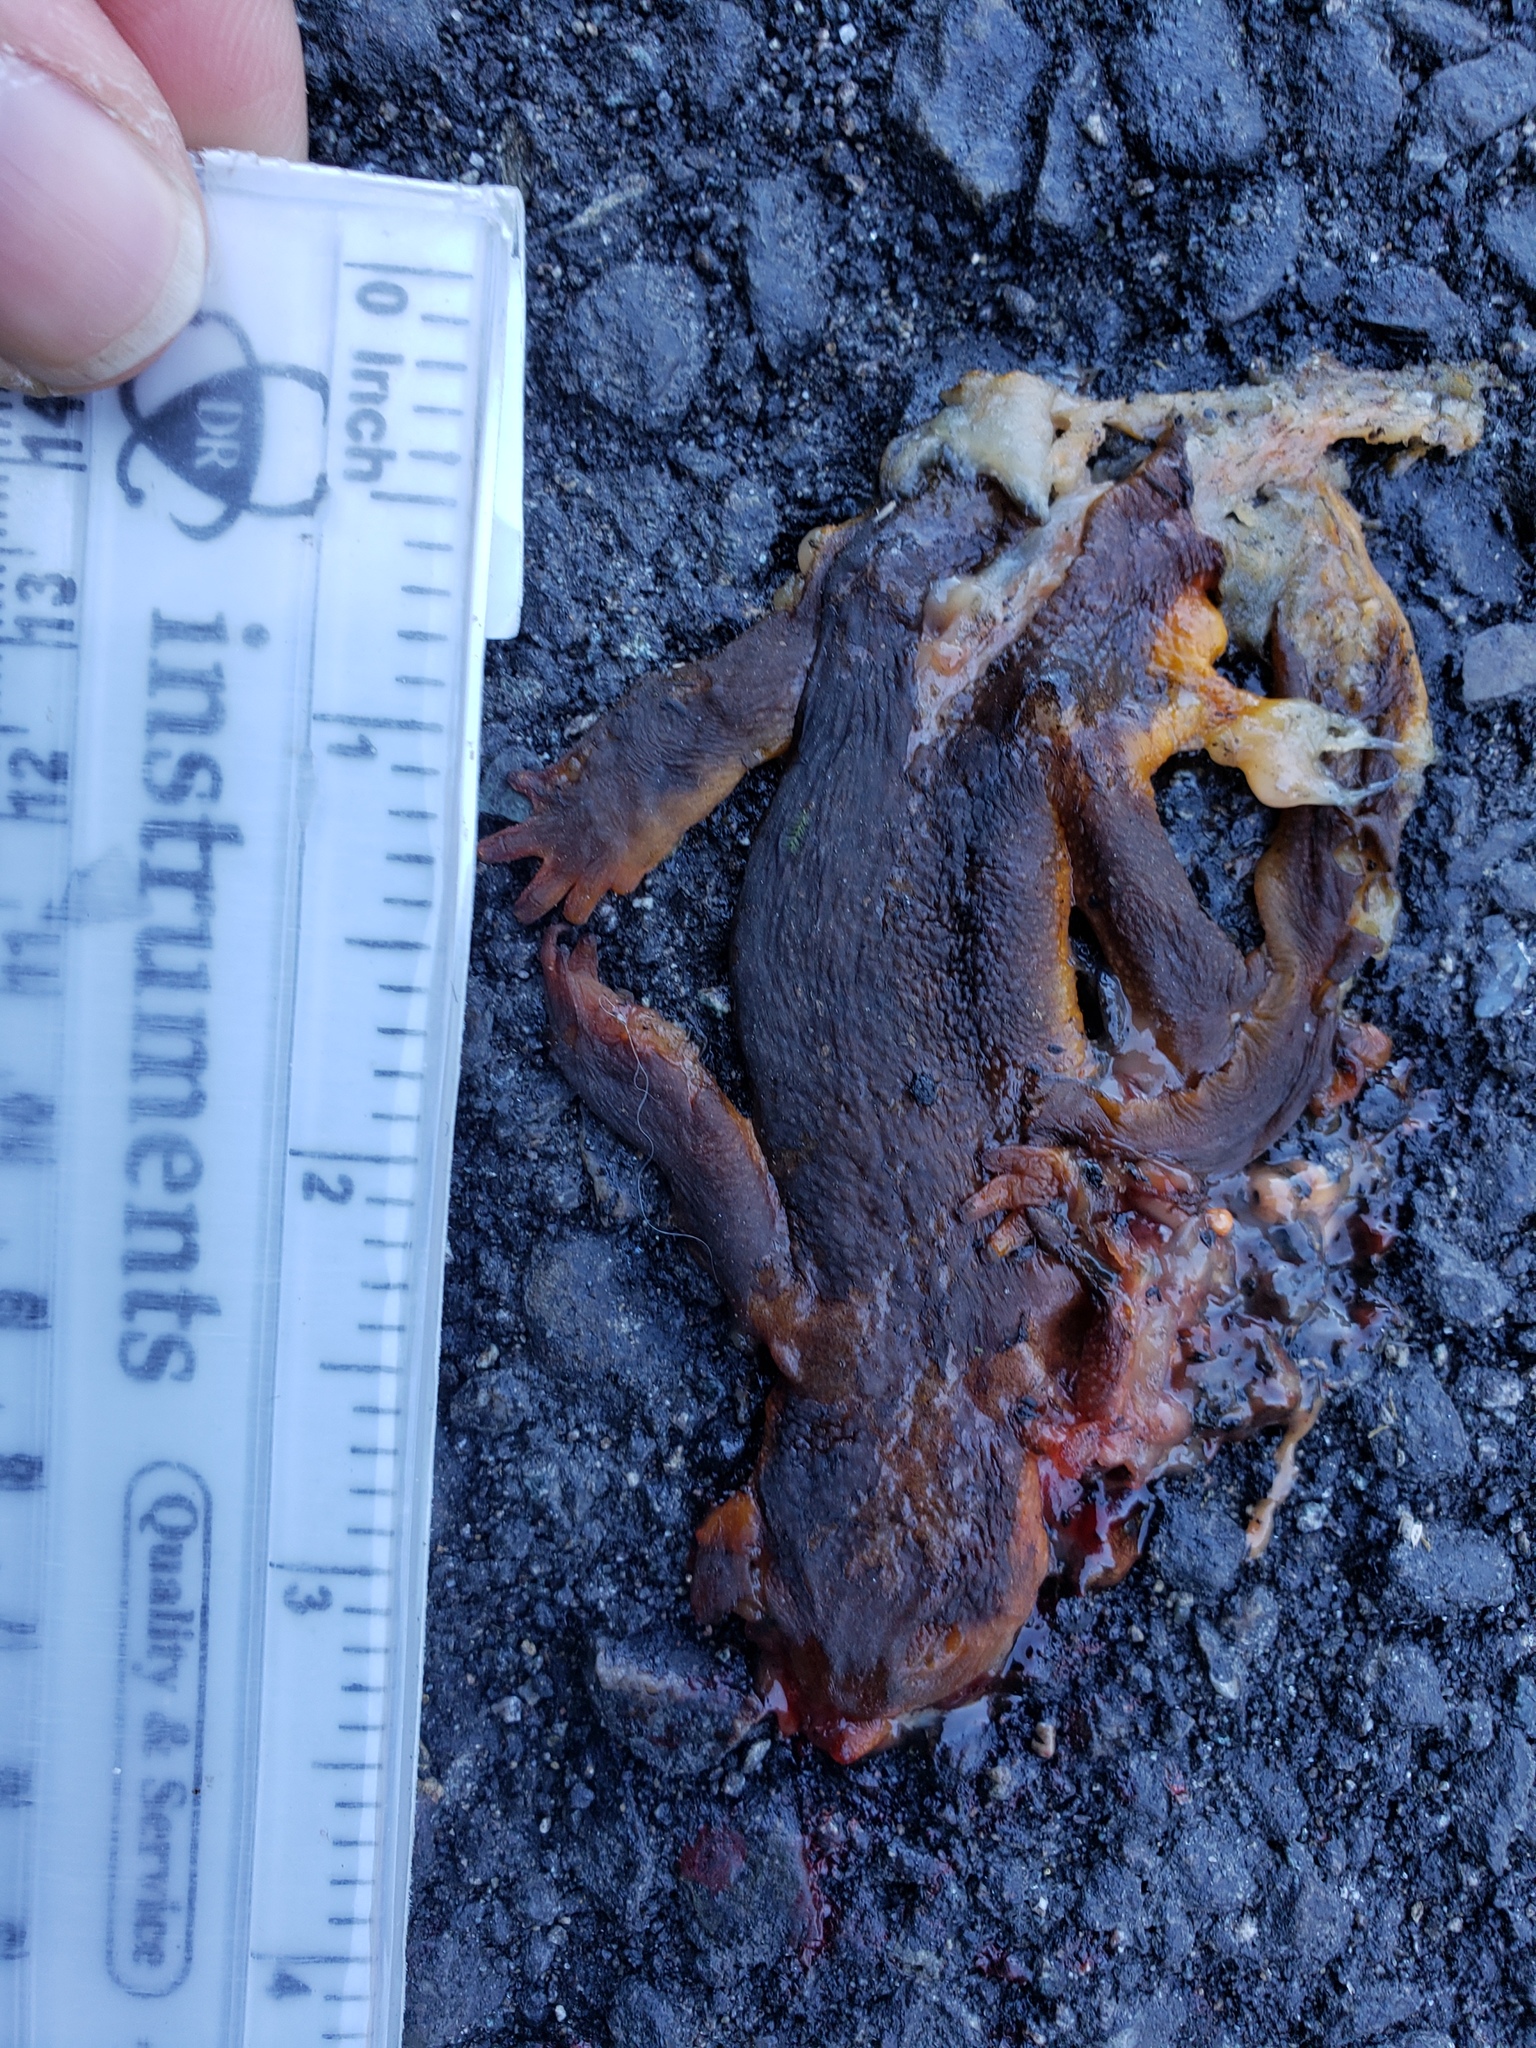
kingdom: Animalia
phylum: Chordata
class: Amphibia
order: Caudata
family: Salamandridae
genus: Taricha
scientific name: Taricha
